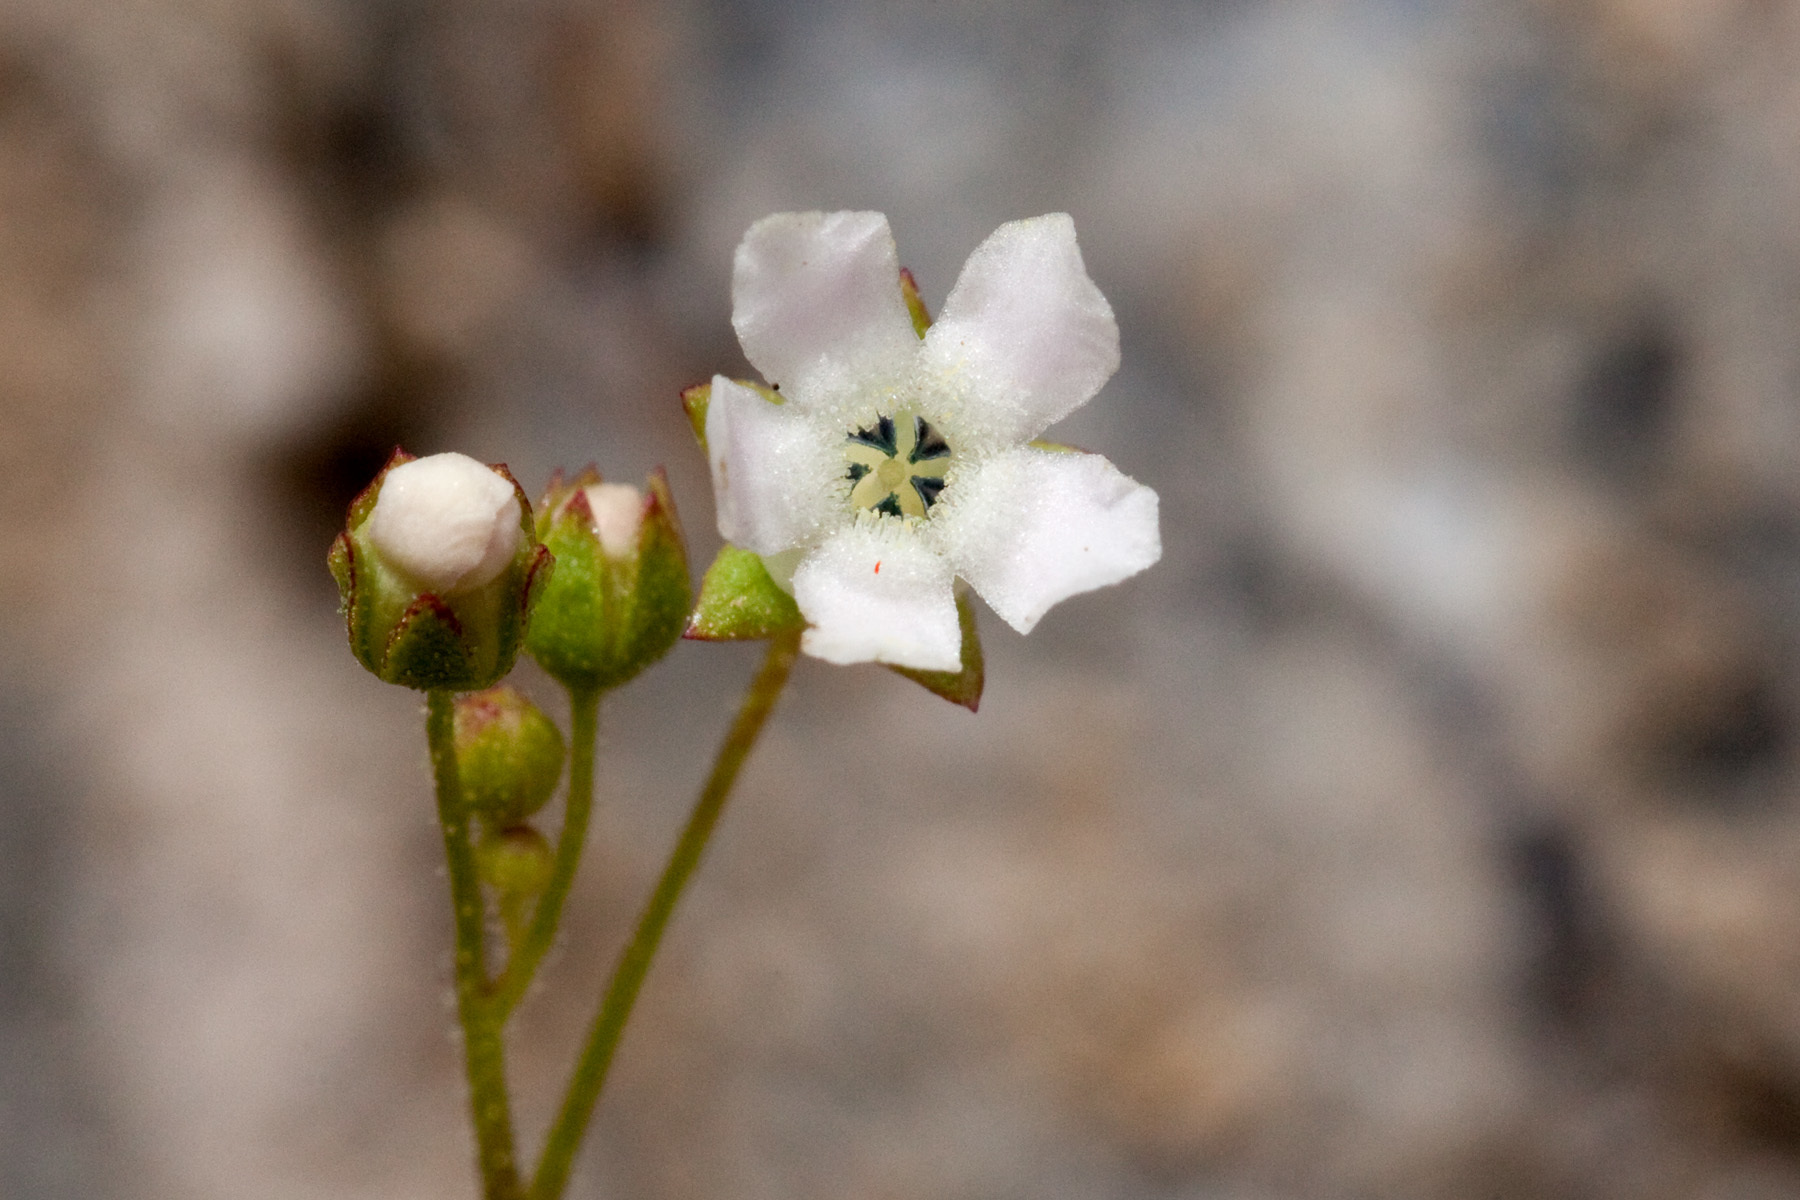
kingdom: Plantae
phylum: Tracheophyta
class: Magnoliopsida
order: Ericales
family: Primulaceae
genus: Samolus
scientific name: Samolus ebracteatus
